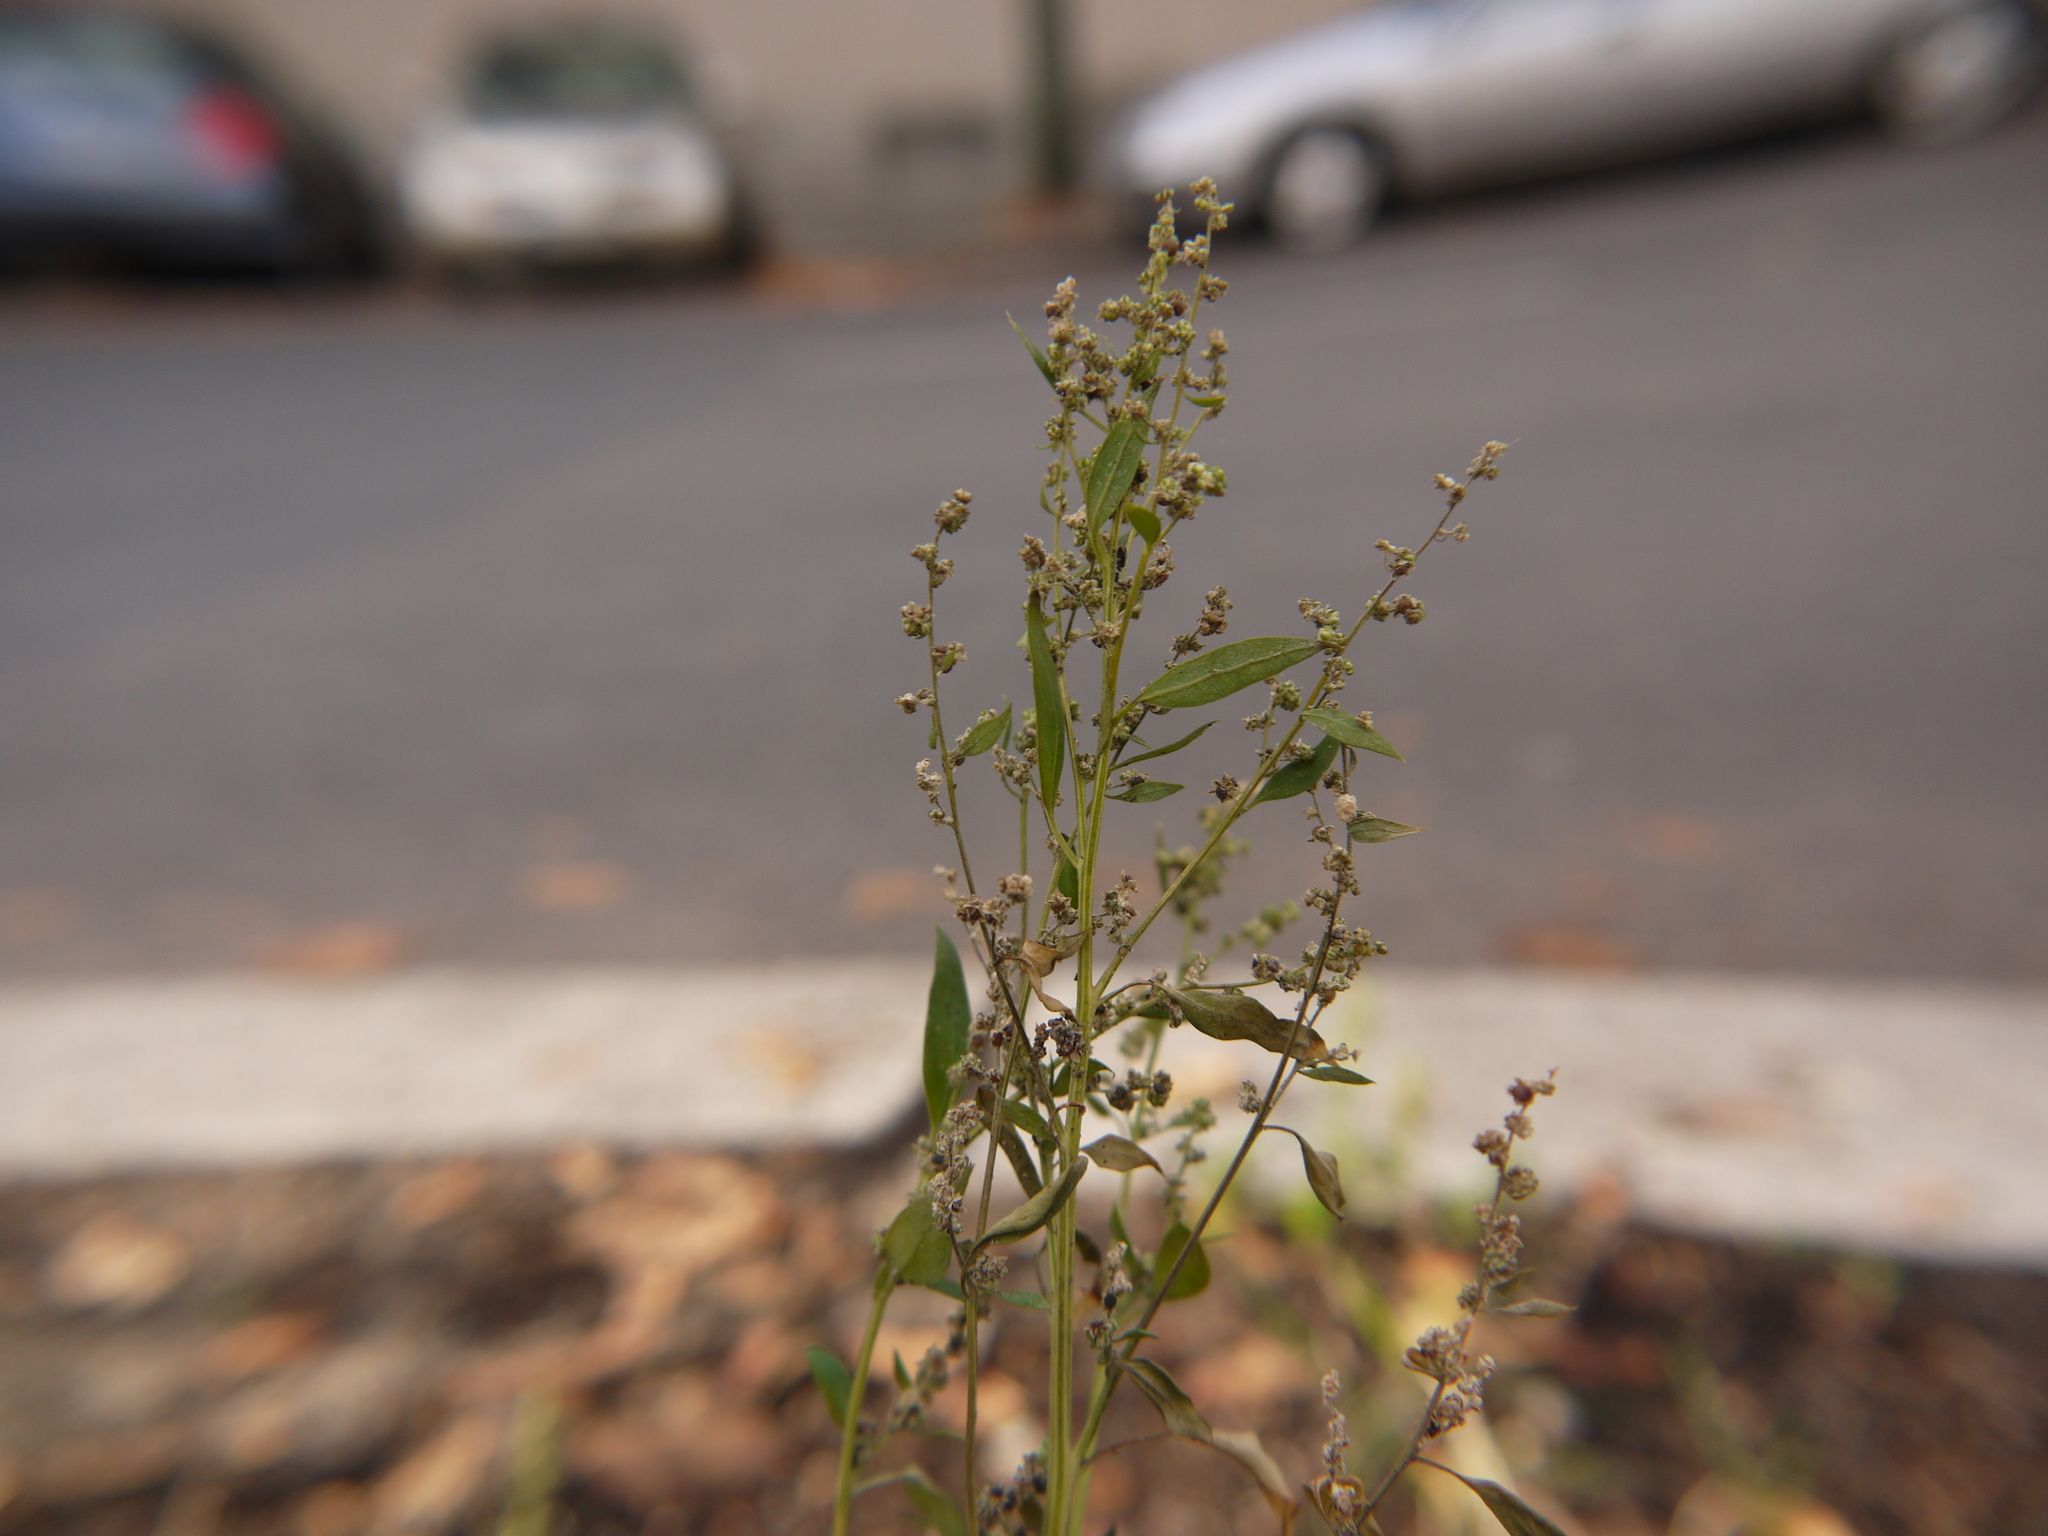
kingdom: Plantae
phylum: Tracheophyta
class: Magnoliopsida
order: Caryophyllales
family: Amaranthaceae
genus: Lipandra
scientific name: Lipandra polysperma
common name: Many-seed goosefoot
